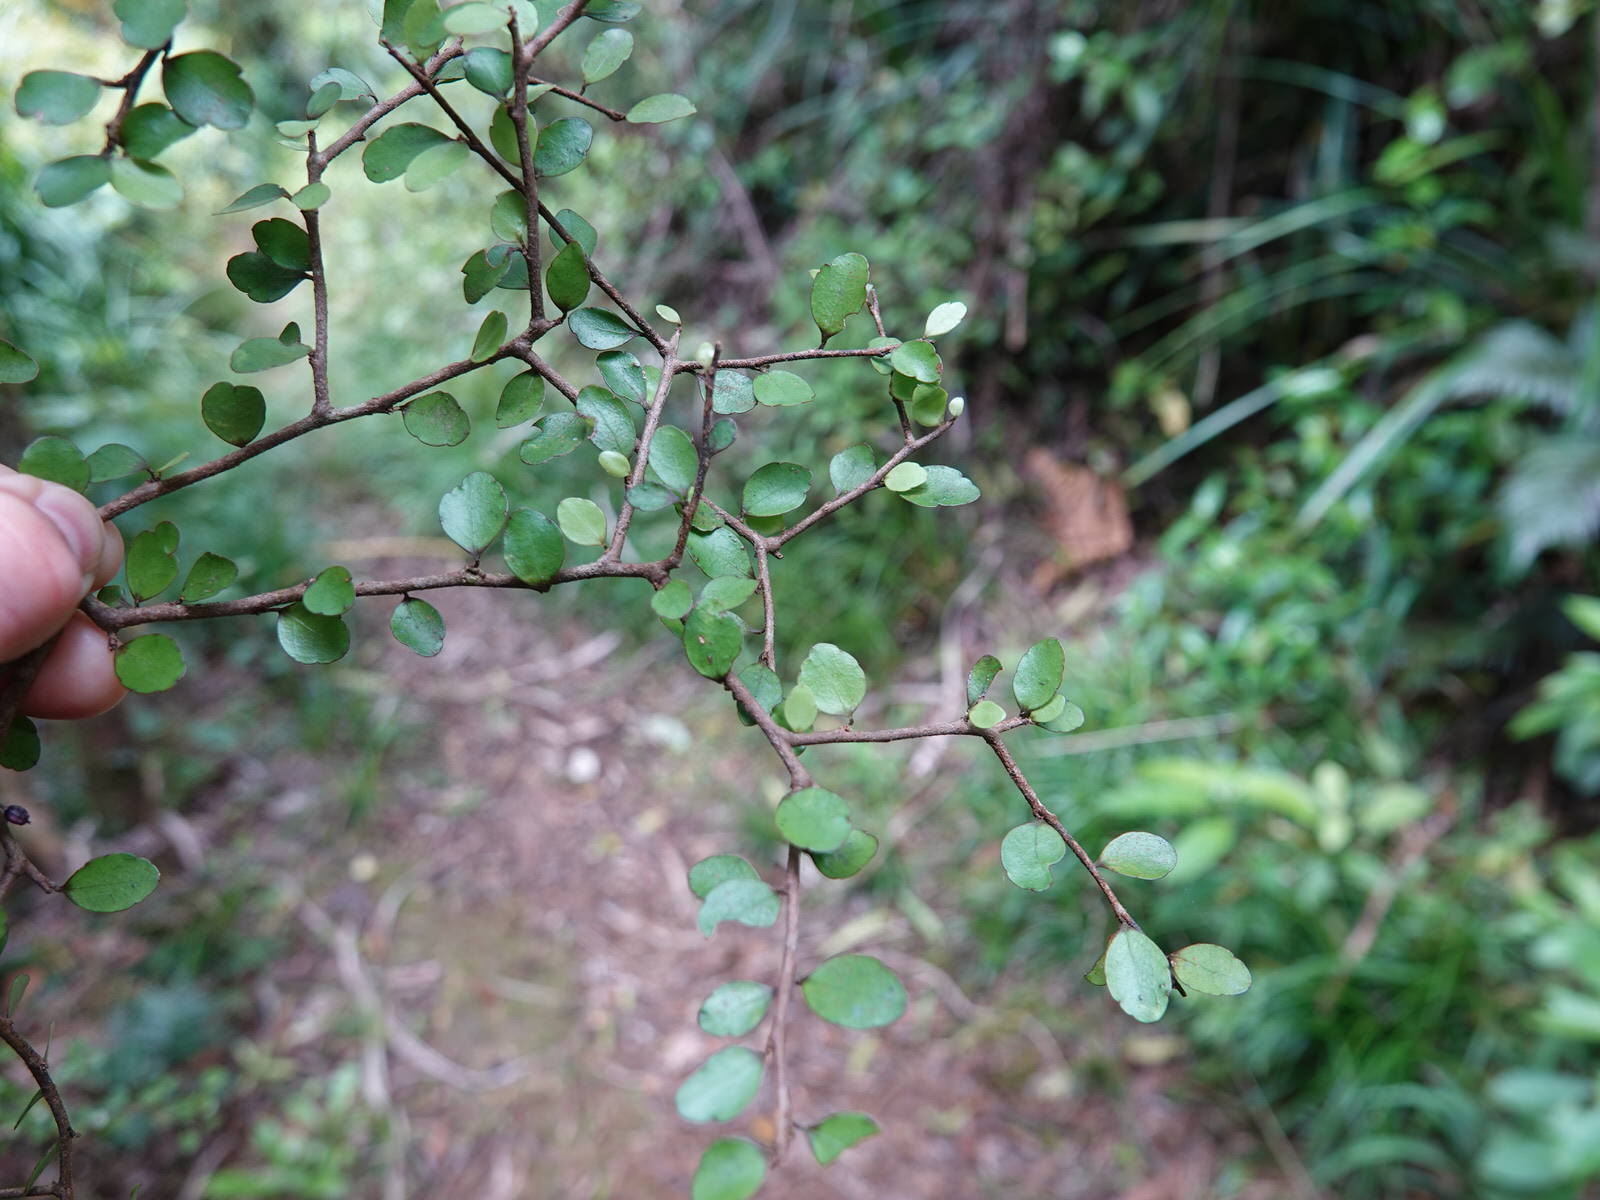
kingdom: Plantae
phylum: Tracheophyta
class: Magnoliopsida
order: Apiales
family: Araliaceae
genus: Raukaua
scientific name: Raukaua anomalus
